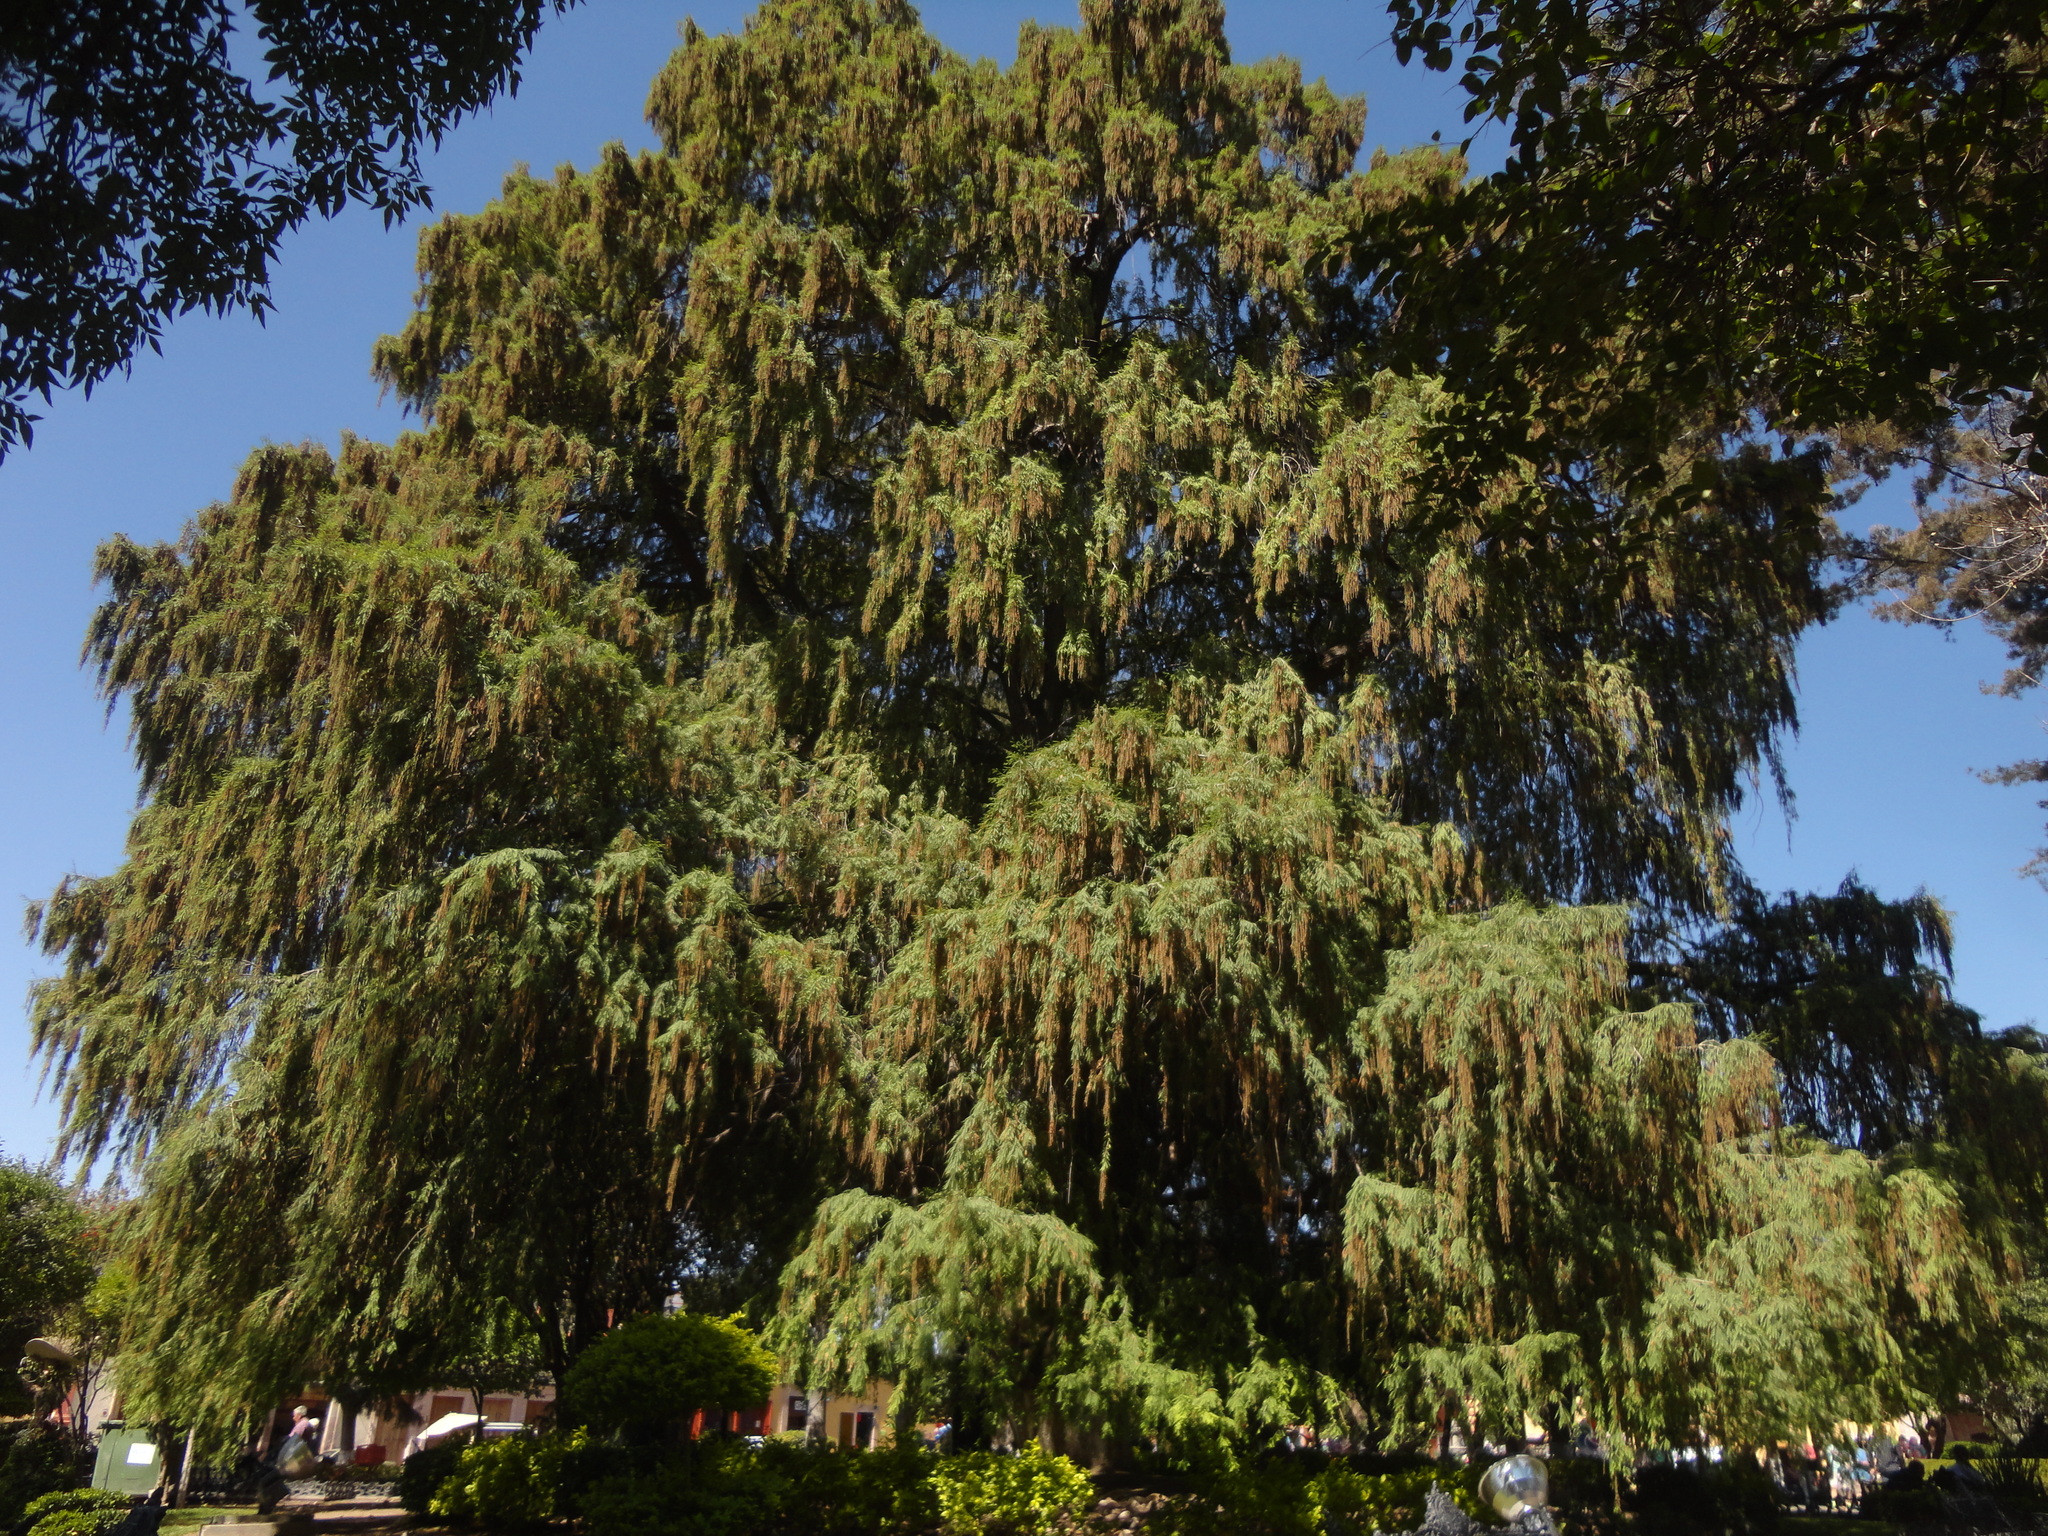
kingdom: Plantae
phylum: Tracheophyta
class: Pinopsida
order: Pinales
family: Cupressaceae
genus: Taxodium
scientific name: Taxodium mucronatum
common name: Montezume bald cypress
